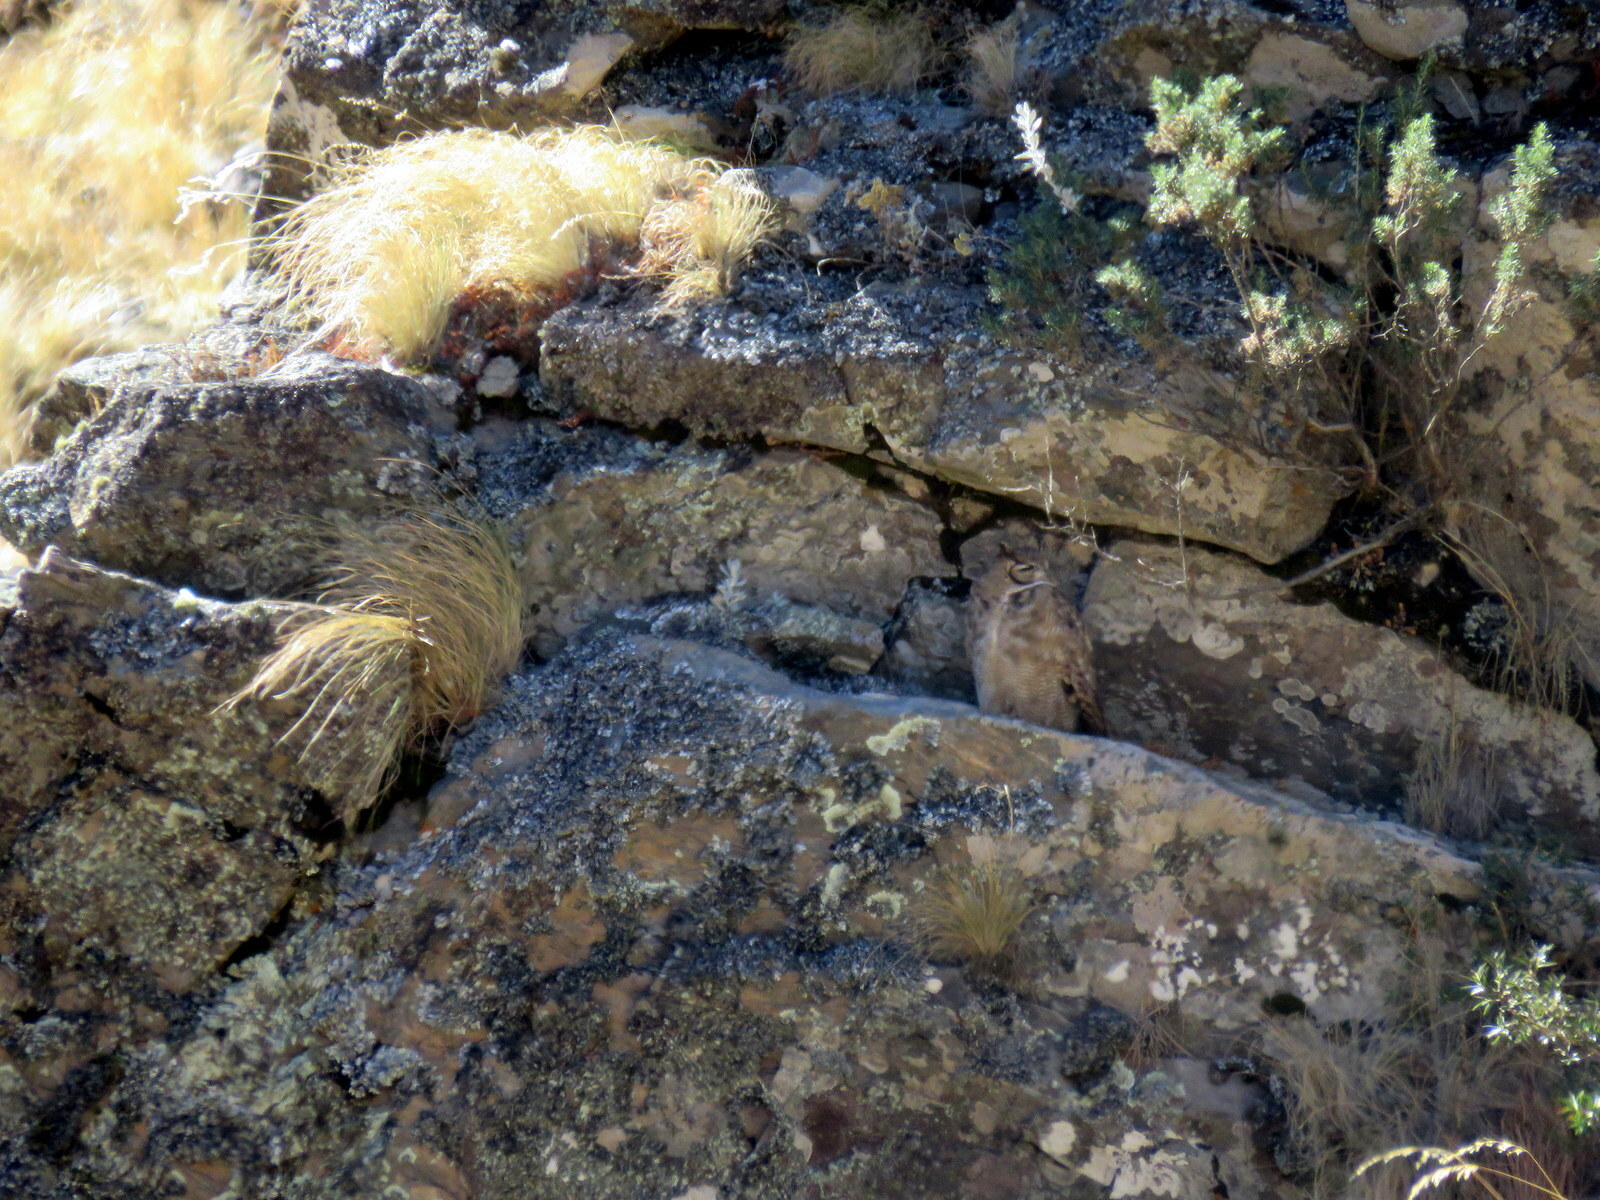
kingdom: Animalia
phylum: Chordata
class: Aves
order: Strigiformes
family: Strigidae
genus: Bubo
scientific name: Bubo magellanicus
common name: Lesser horned owl
